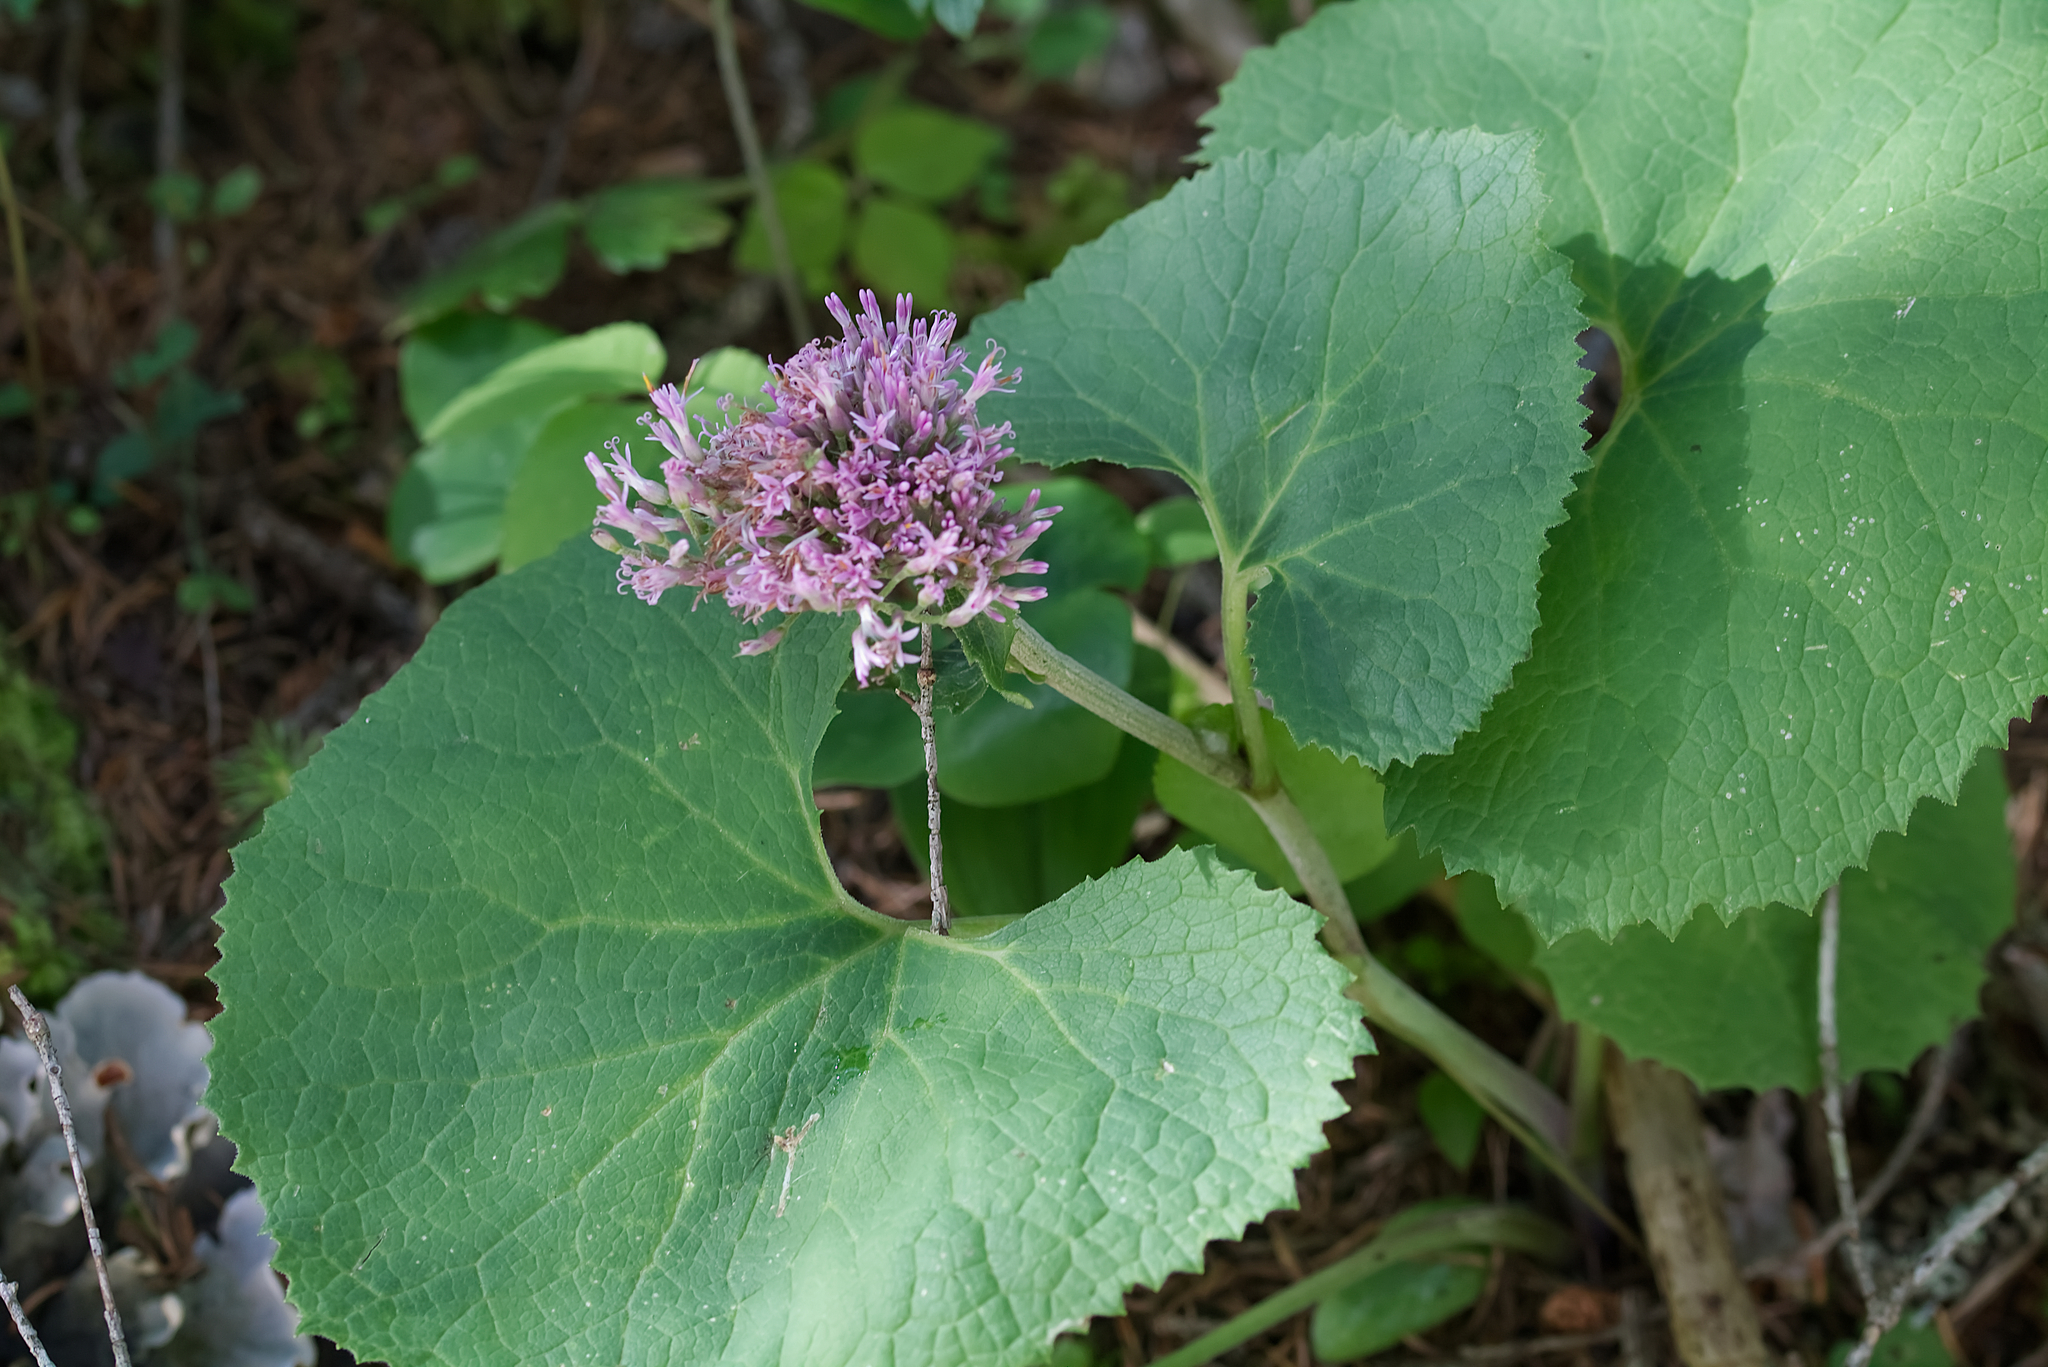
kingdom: Plantae
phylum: Tracheophyta
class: Magnoliopsida
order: Asterales
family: Asteraceae
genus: Adenostyles
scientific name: Adenostyles alpina
